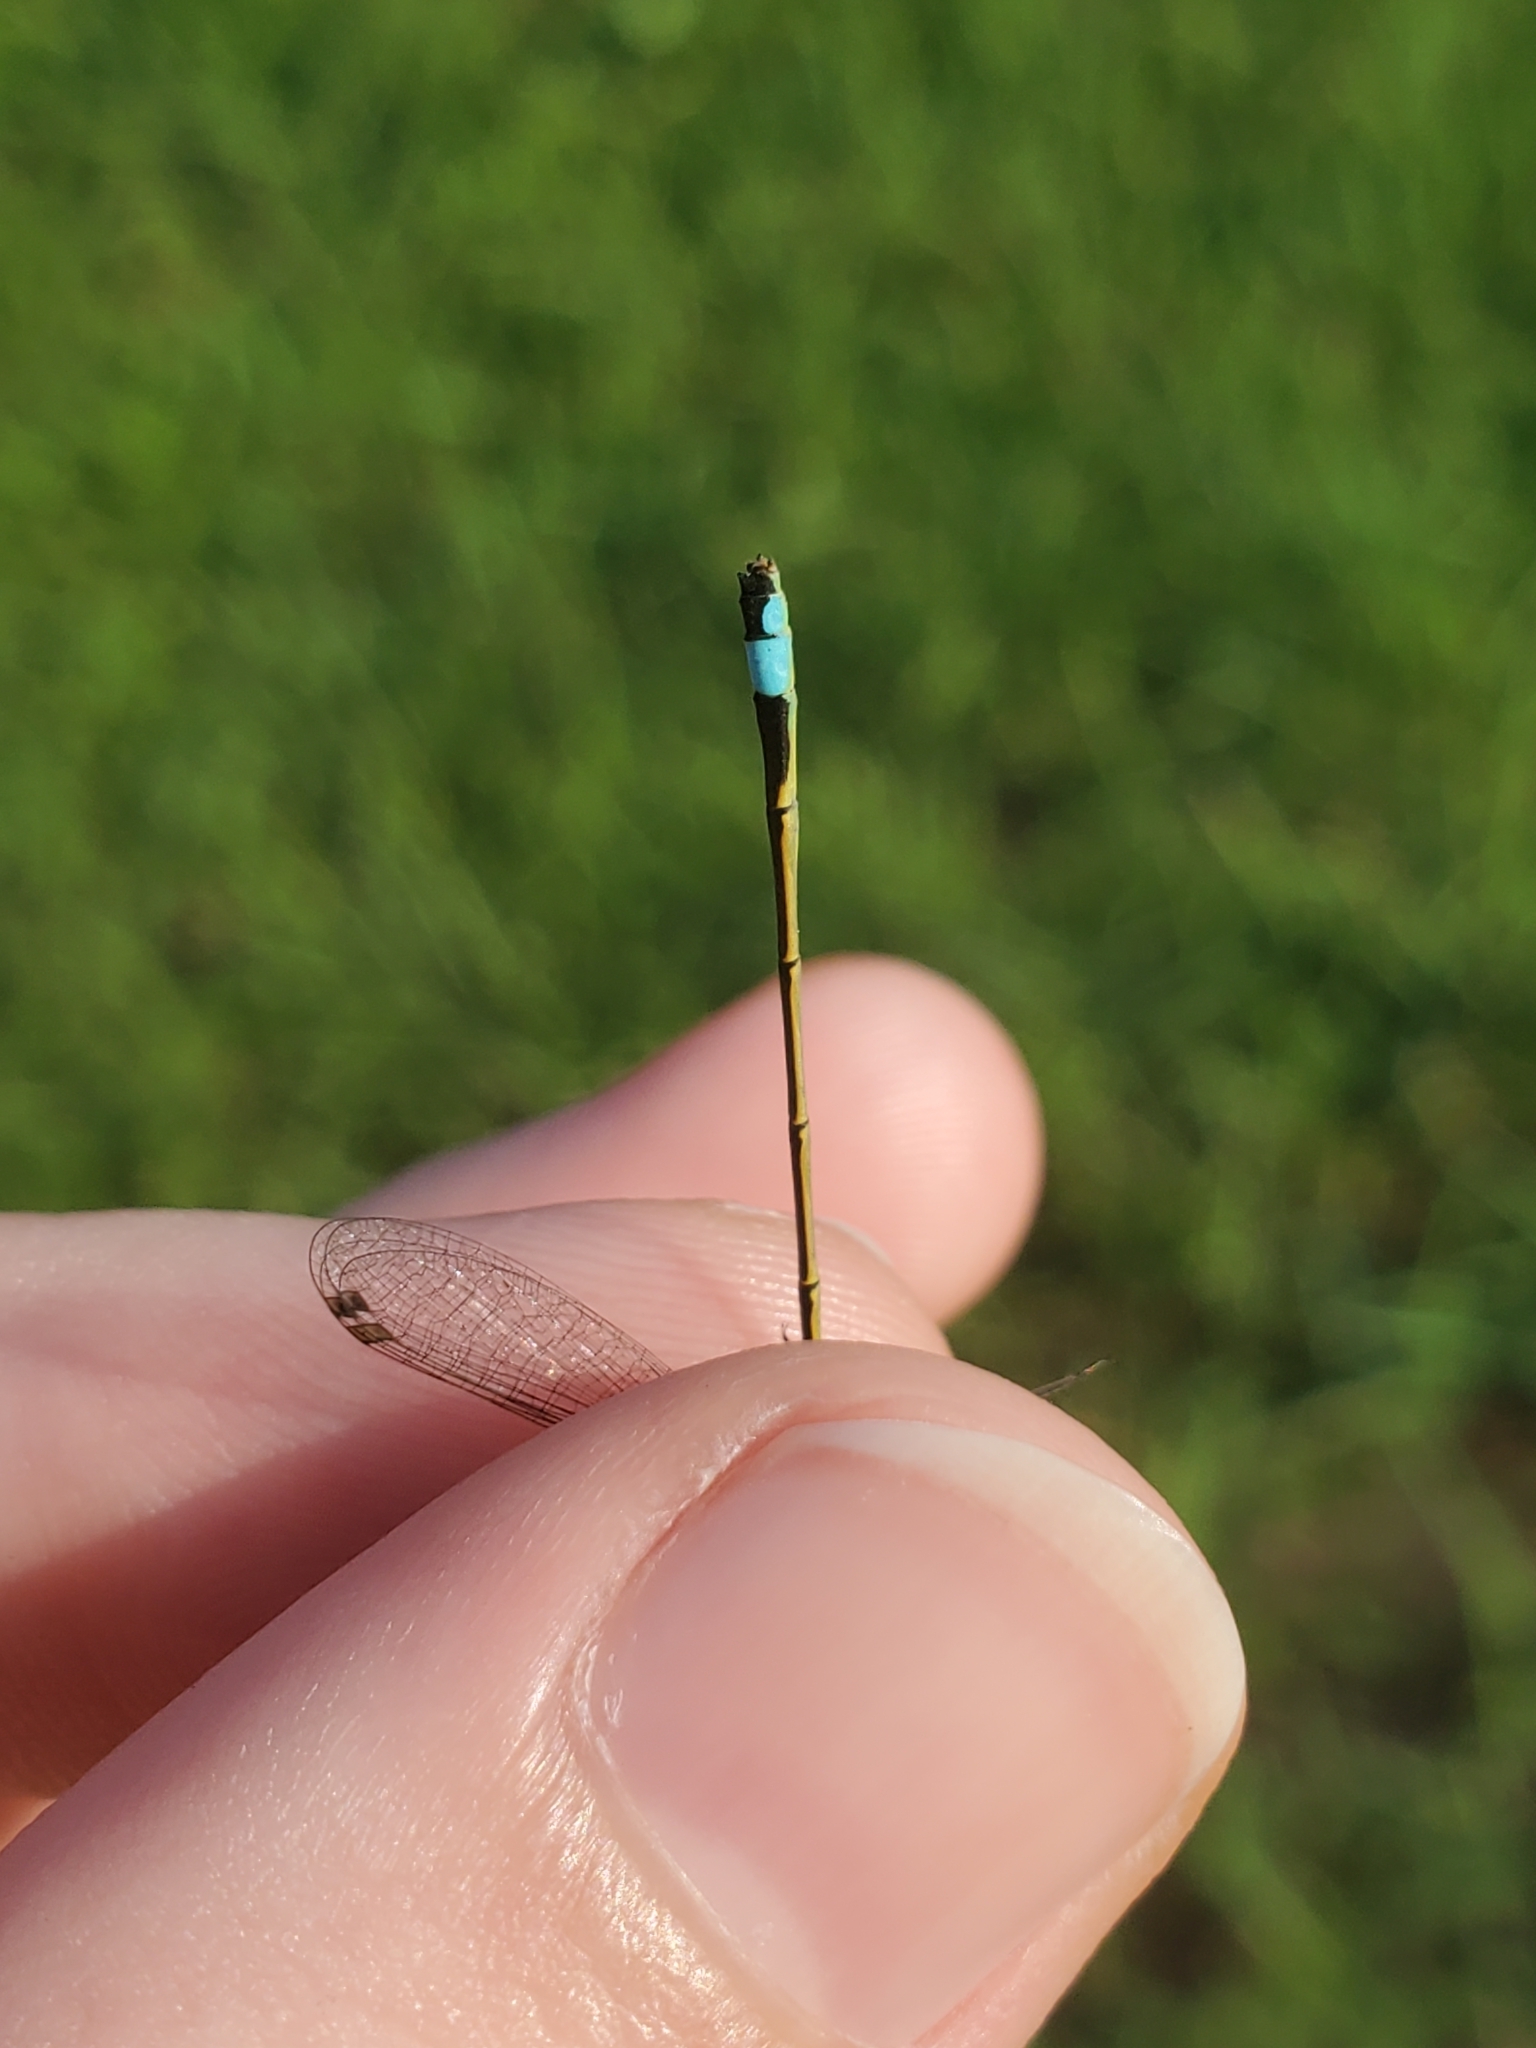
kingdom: Animalia
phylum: Arthropoda
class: Insecta
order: Odonata
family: Coenagrionidae
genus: Ischnura
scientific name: Ischnura ramburii
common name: Rambur's forktail
